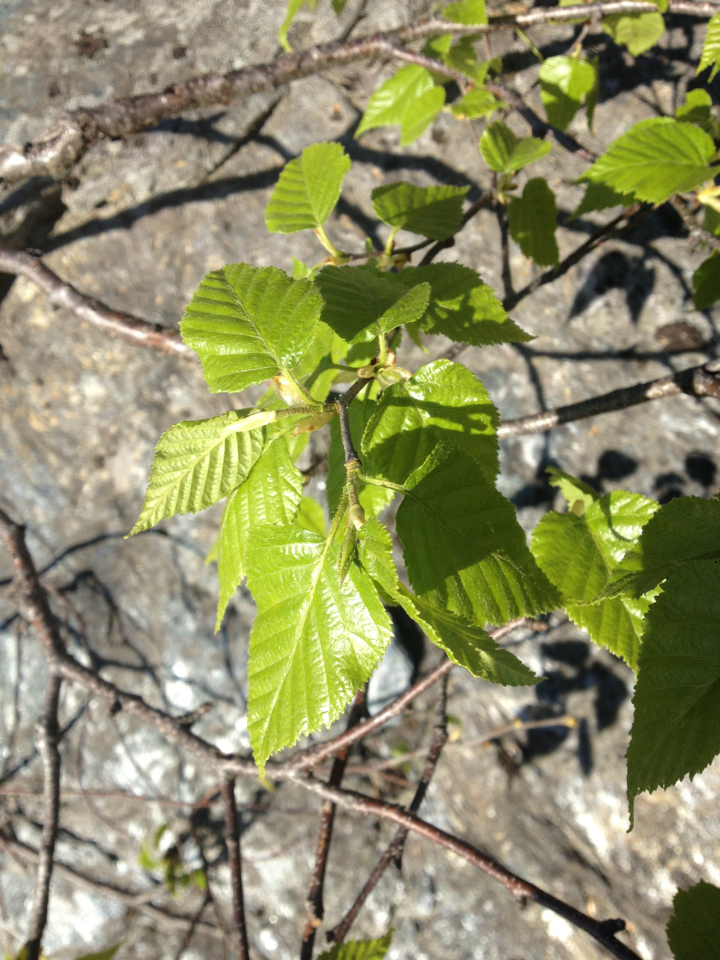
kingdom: Plantae
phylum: Tracheophyta
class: Magnoliopsida
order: Fagales
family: Betulaceae
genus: Betula
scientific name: Betula cordifolia
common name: Mountain white birch
